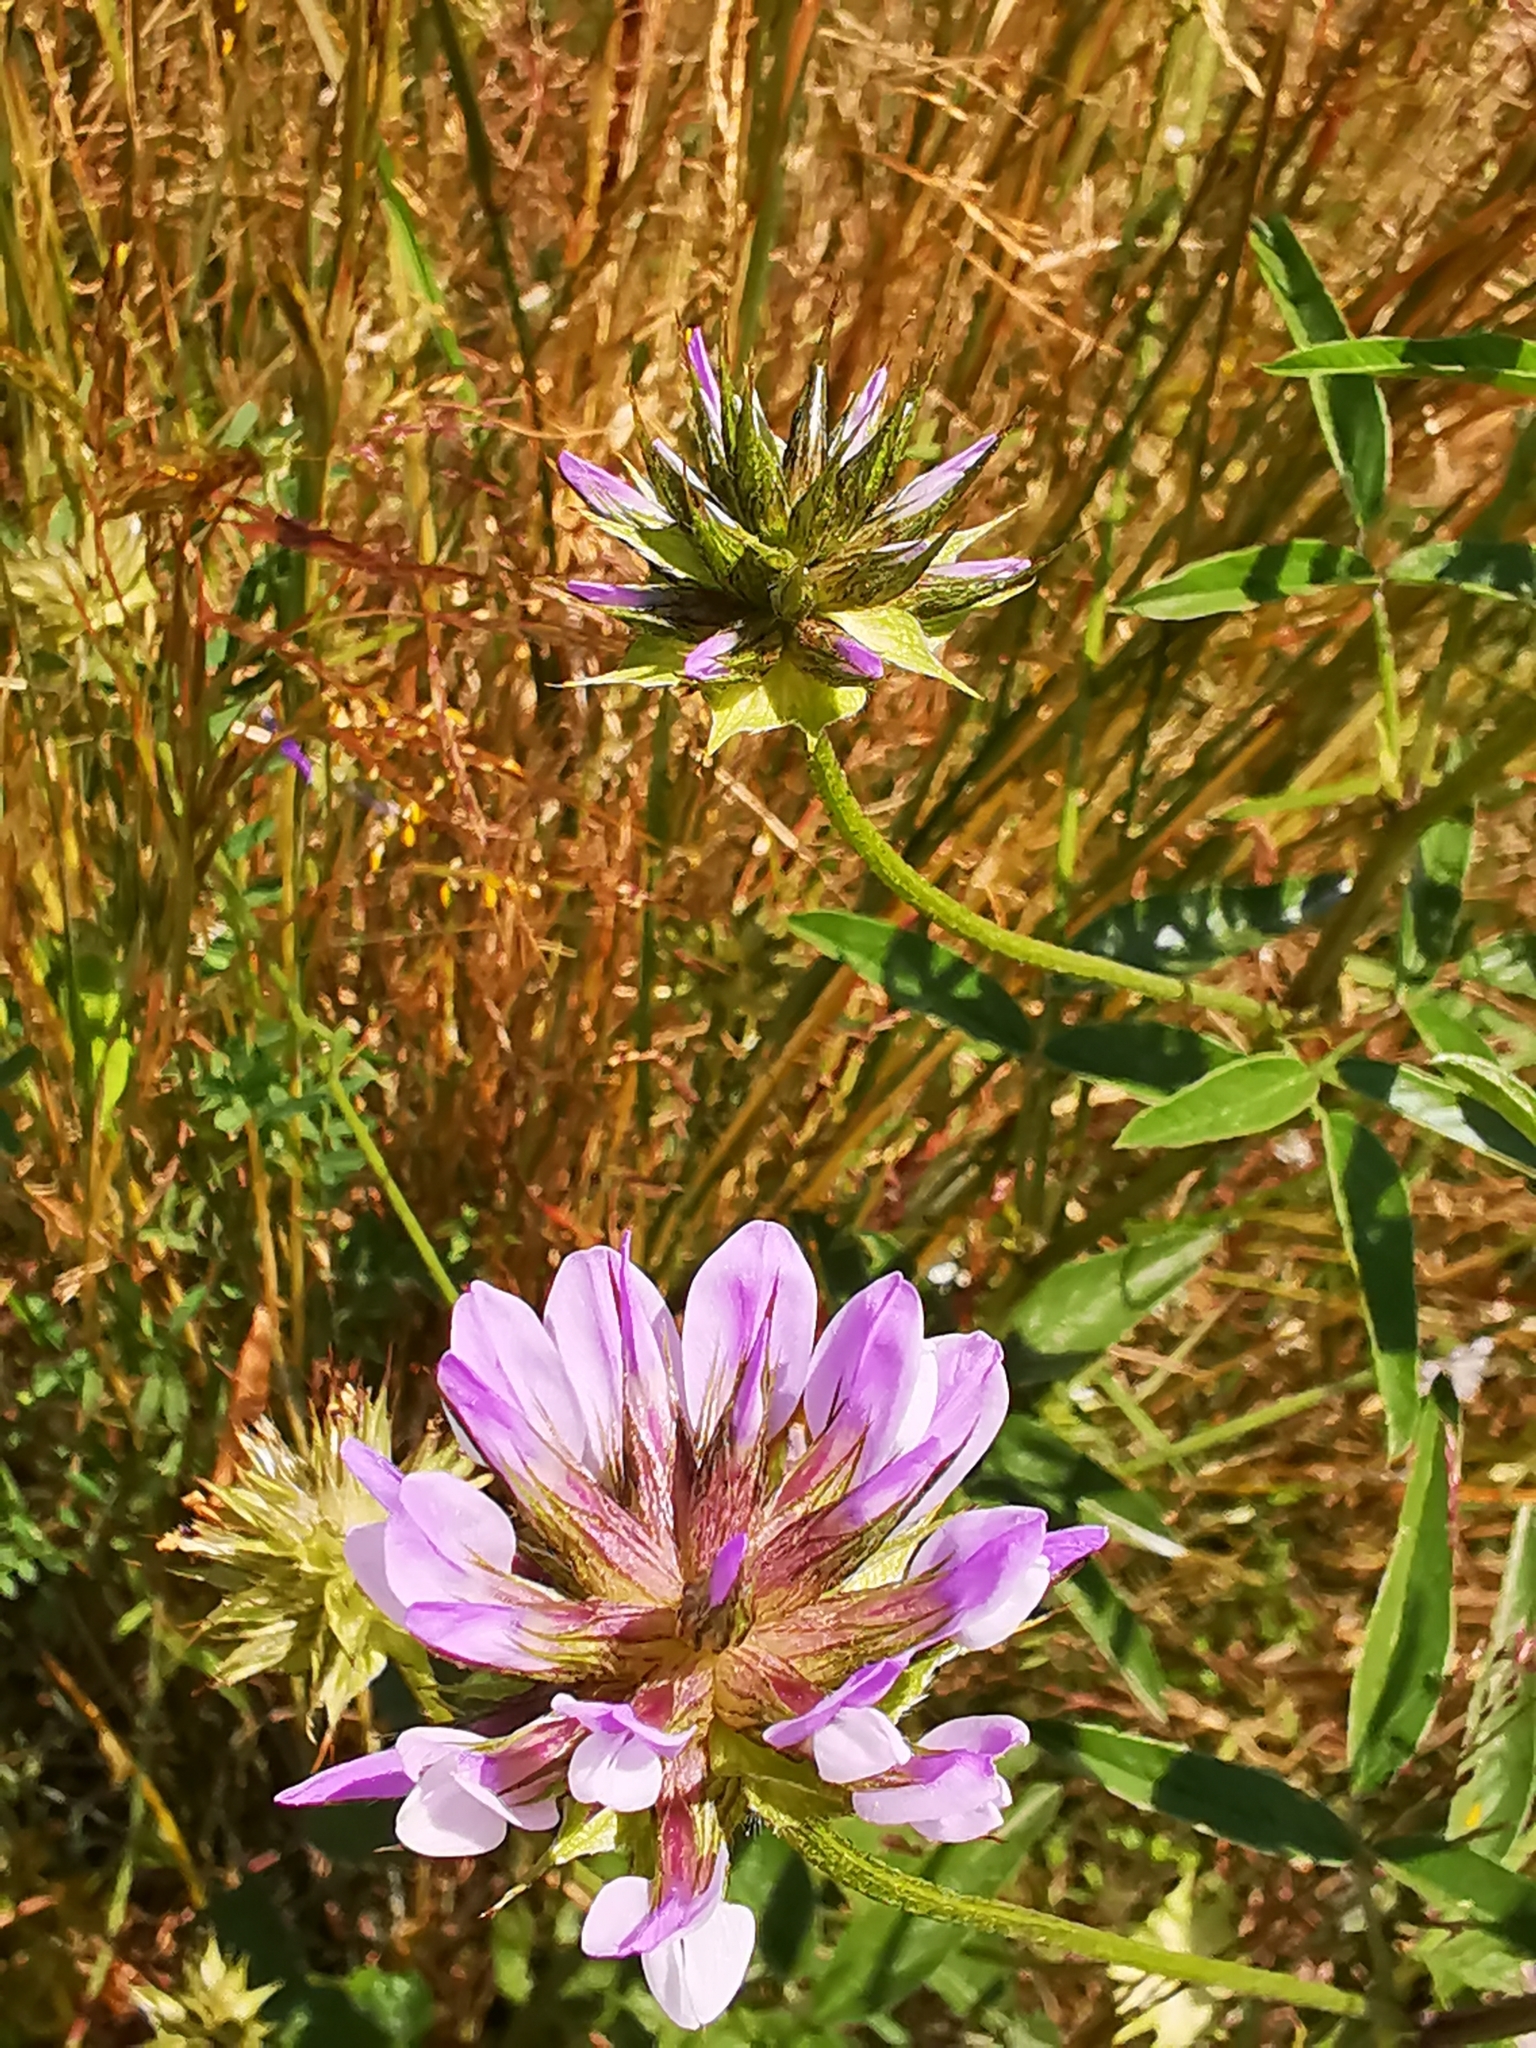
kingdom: Plantae
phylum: Tracheophyta
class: Magnoliopsida
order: Fabales
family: Fabaceae
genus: Bituminaria
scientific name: Bituminaria bituminosa
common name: Arabian pea
